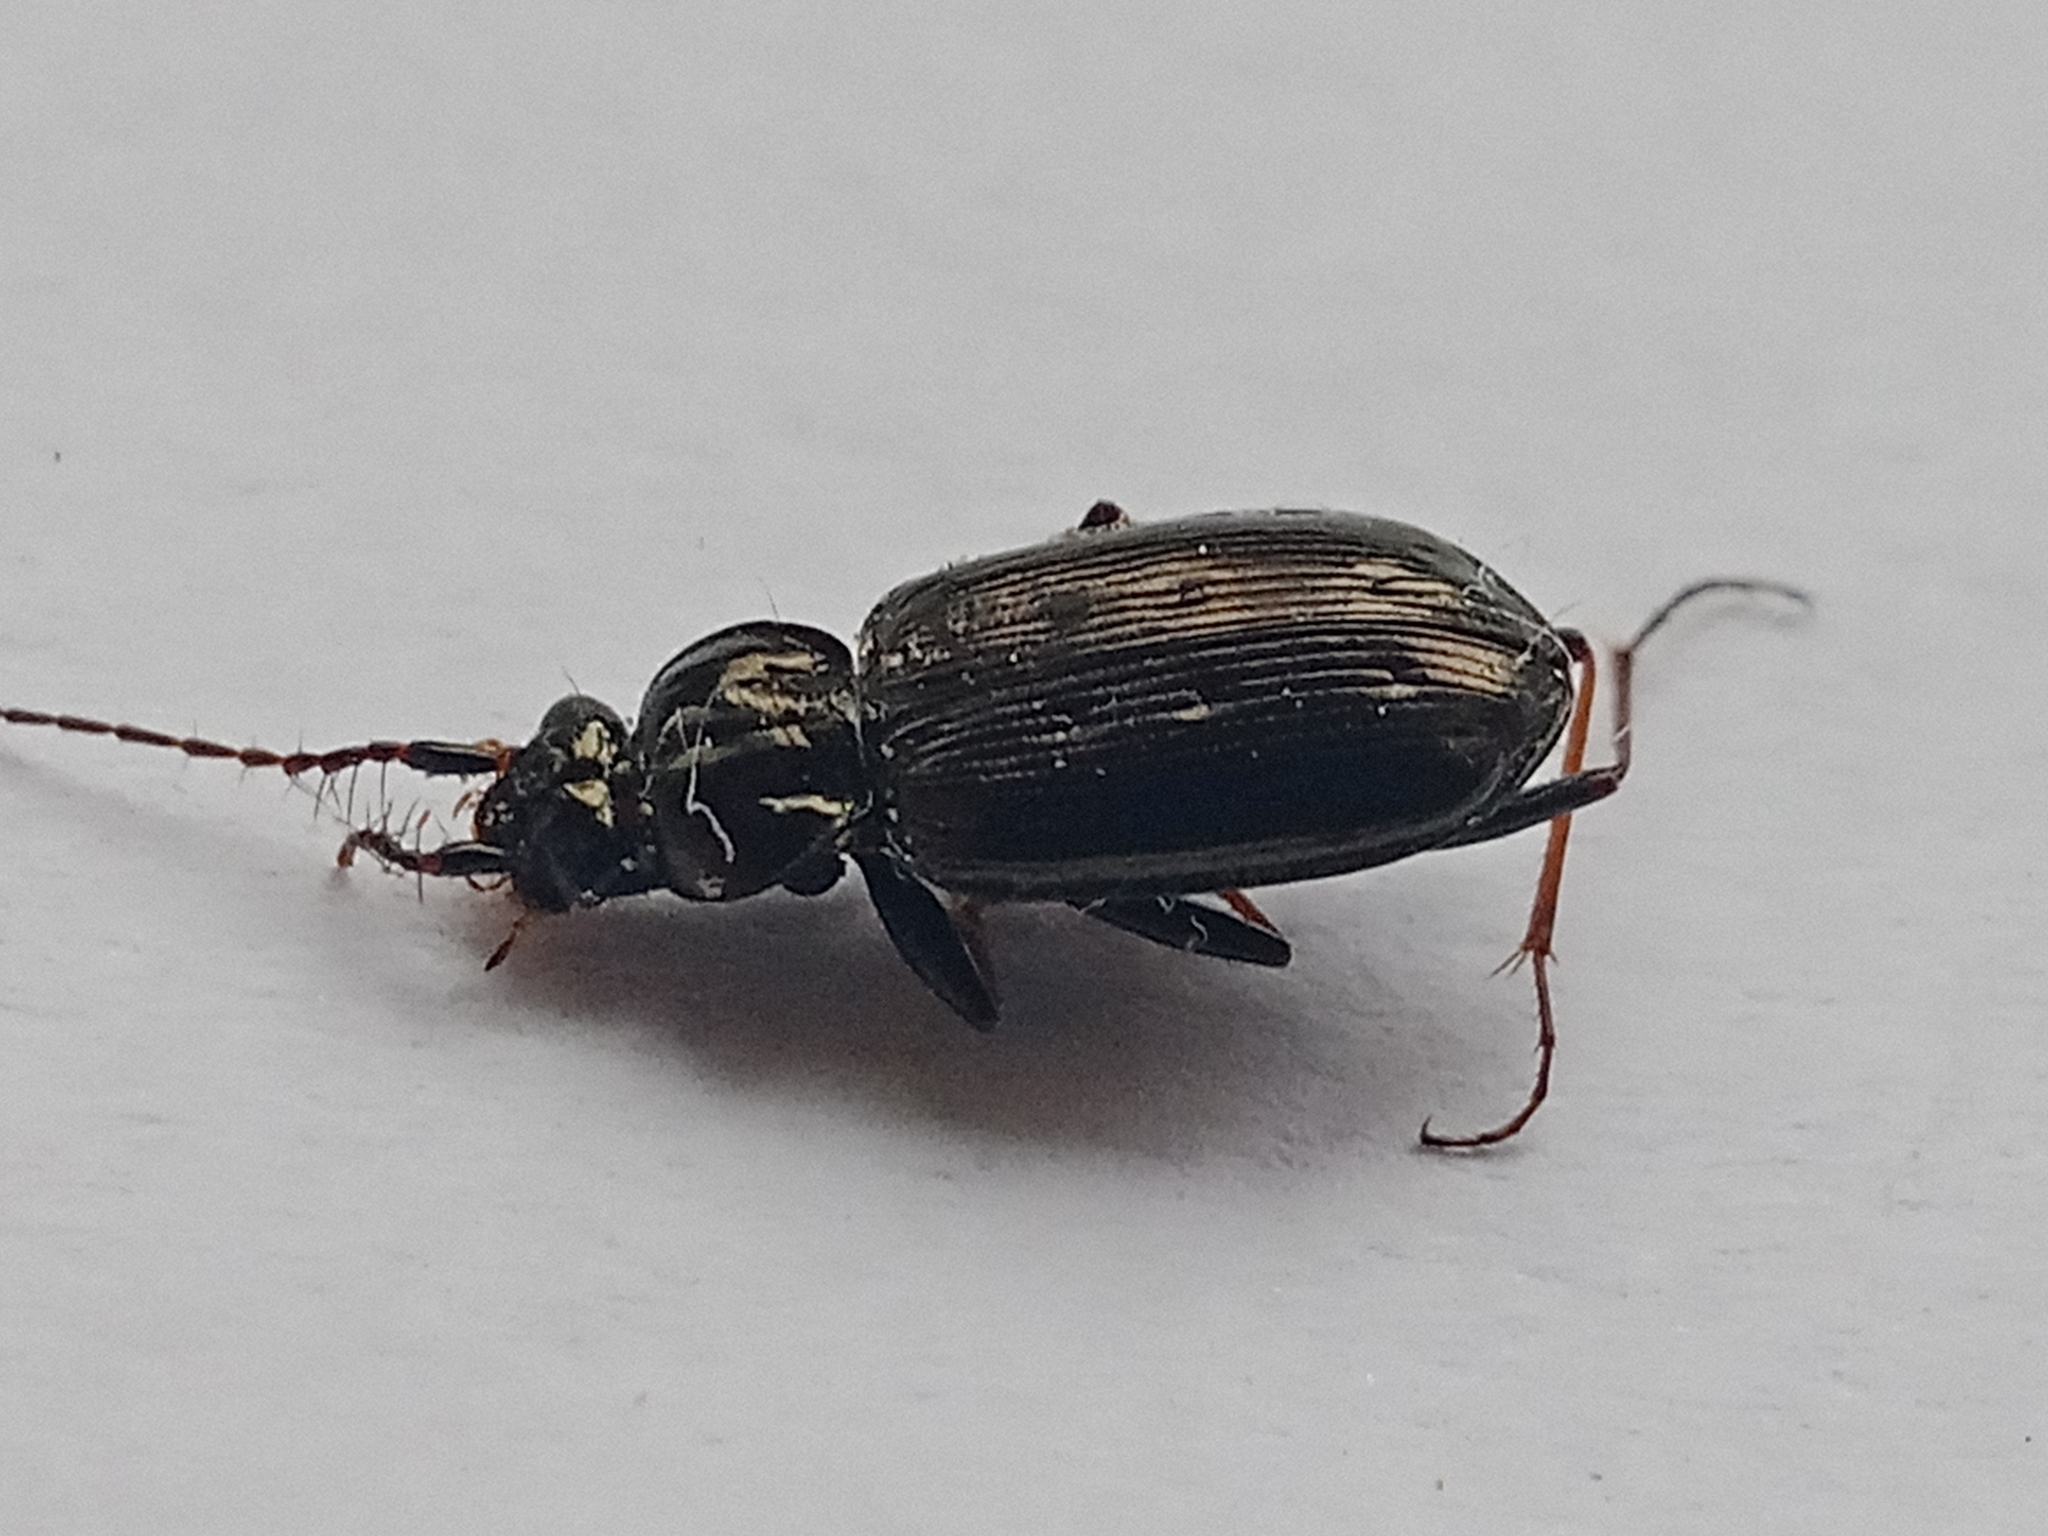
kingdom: Animalia
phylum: Arthropoda
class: Insecta
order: Coleoptera
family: Carabidae
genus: Loricera
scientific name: Loricera pilicornis
